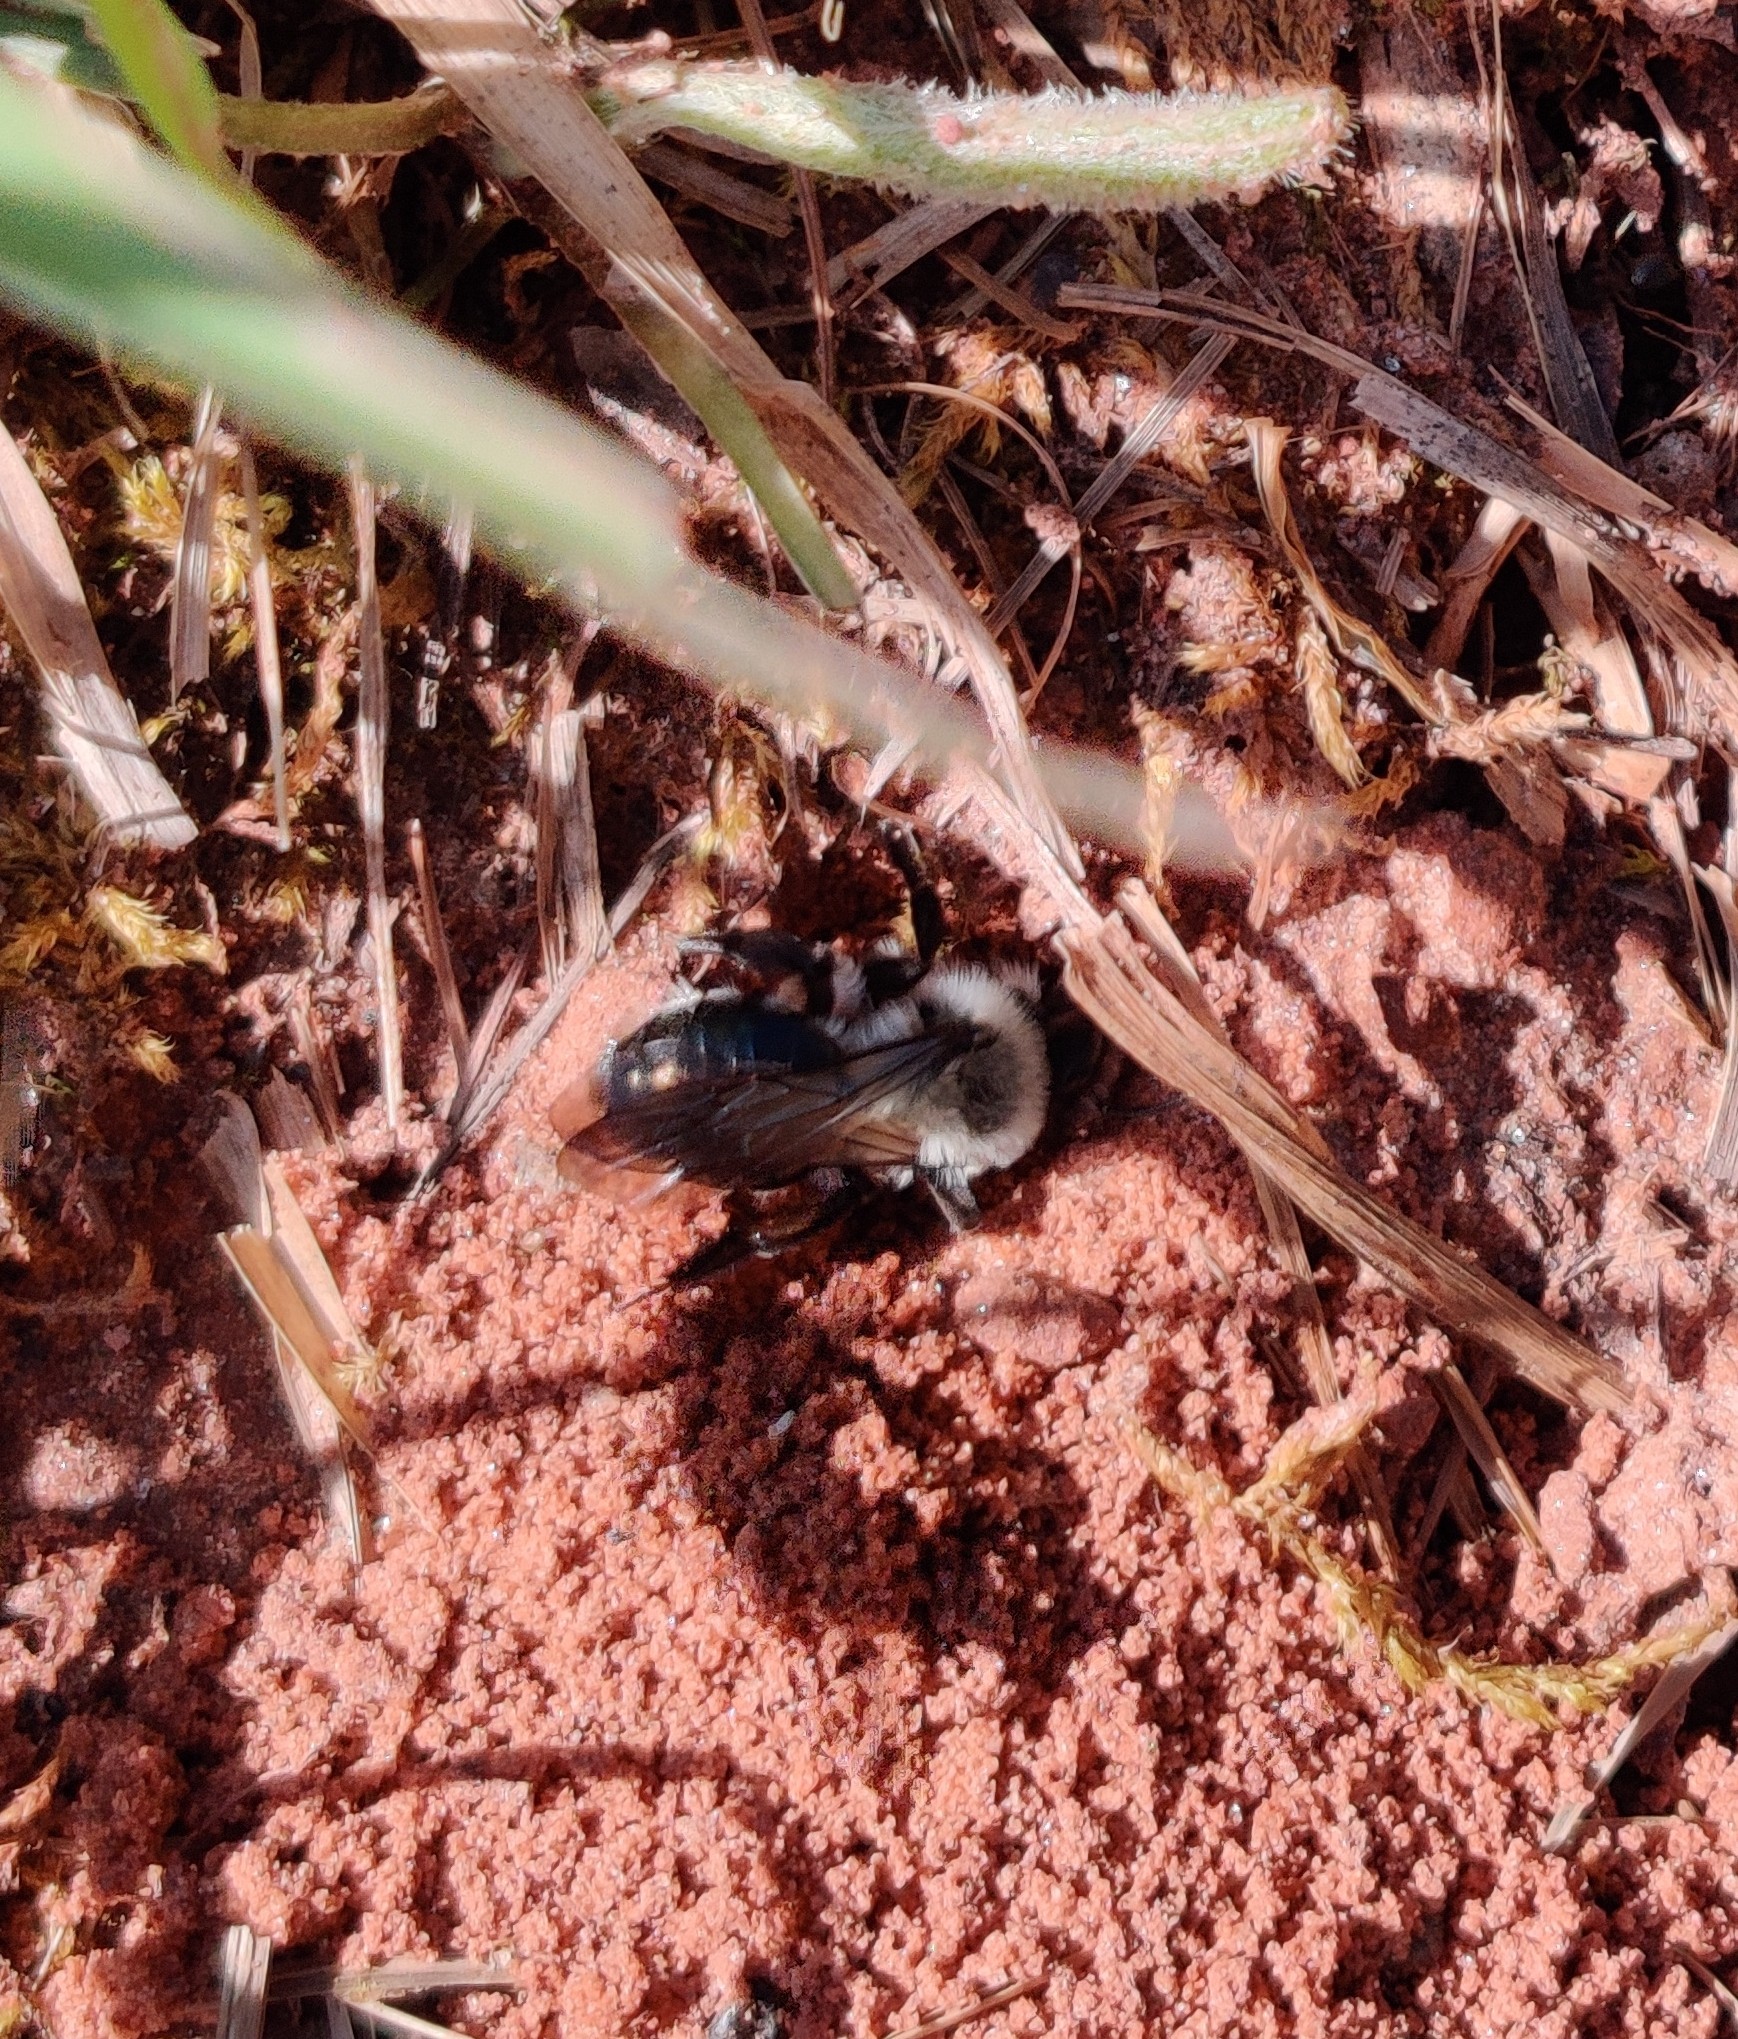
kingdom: Animalia
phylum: Arthropoda
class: Insecta
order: Hymenoptera
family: Andrenidae
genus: Andrena
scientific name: Andrena vaga
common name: Grey-backed mining bee
